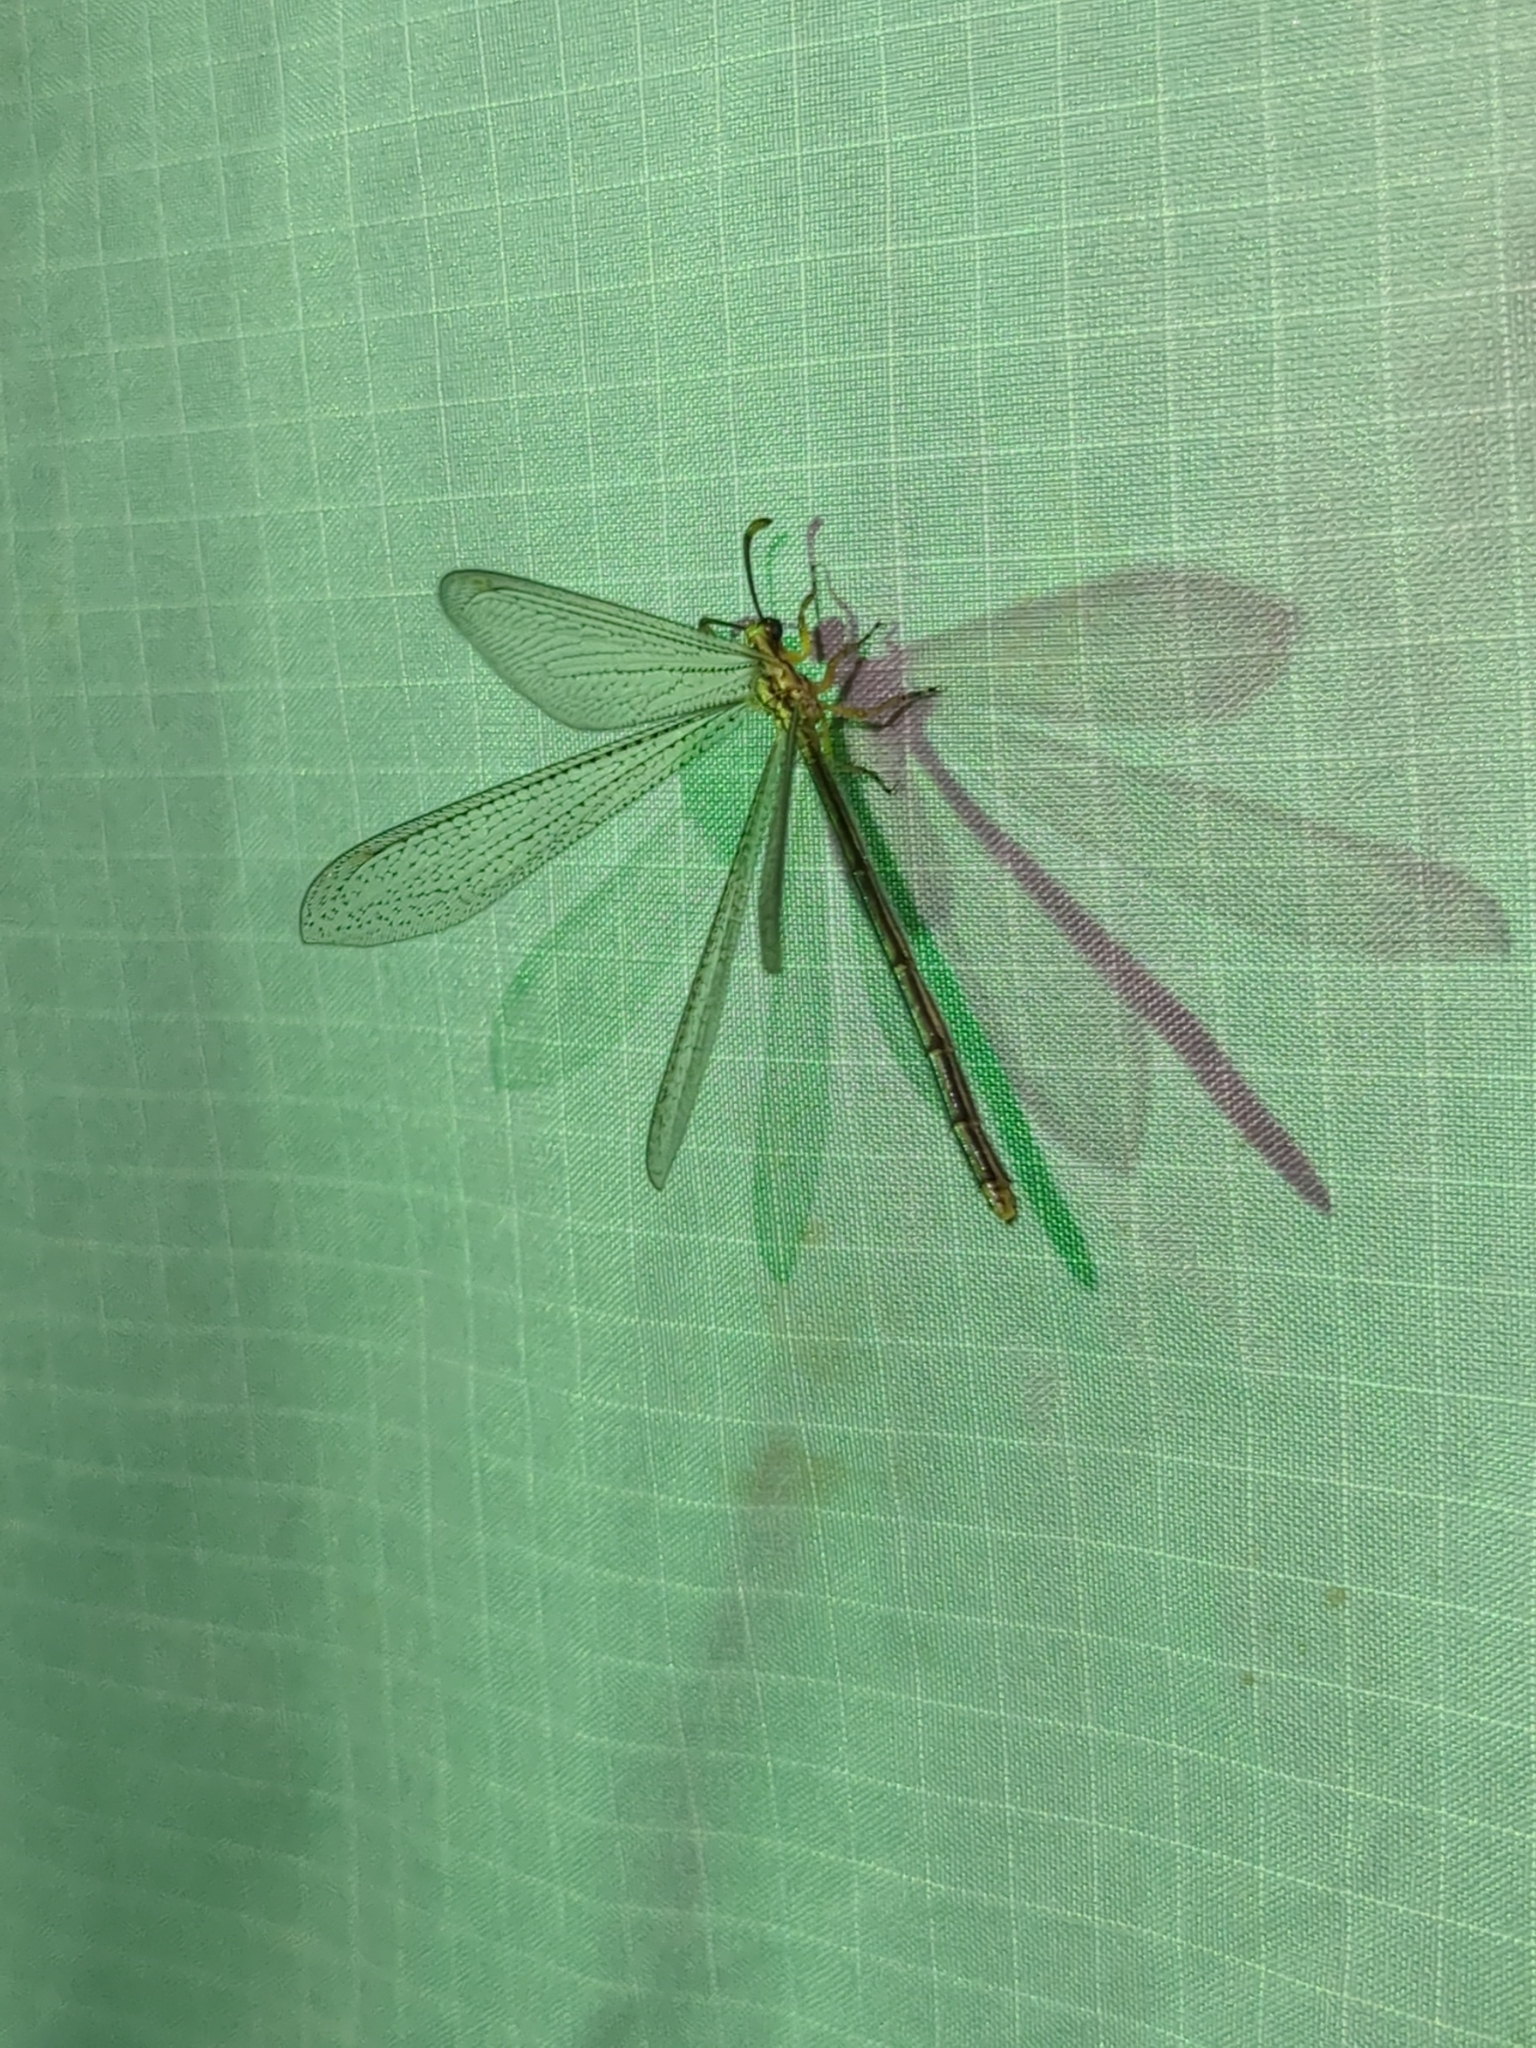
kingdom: Animalia
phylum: Arthropoda
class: Insecta
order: Neuroptera
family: Myrmeleontidae
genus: Brachynemurus
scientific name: Brachynemurus abdominalis
